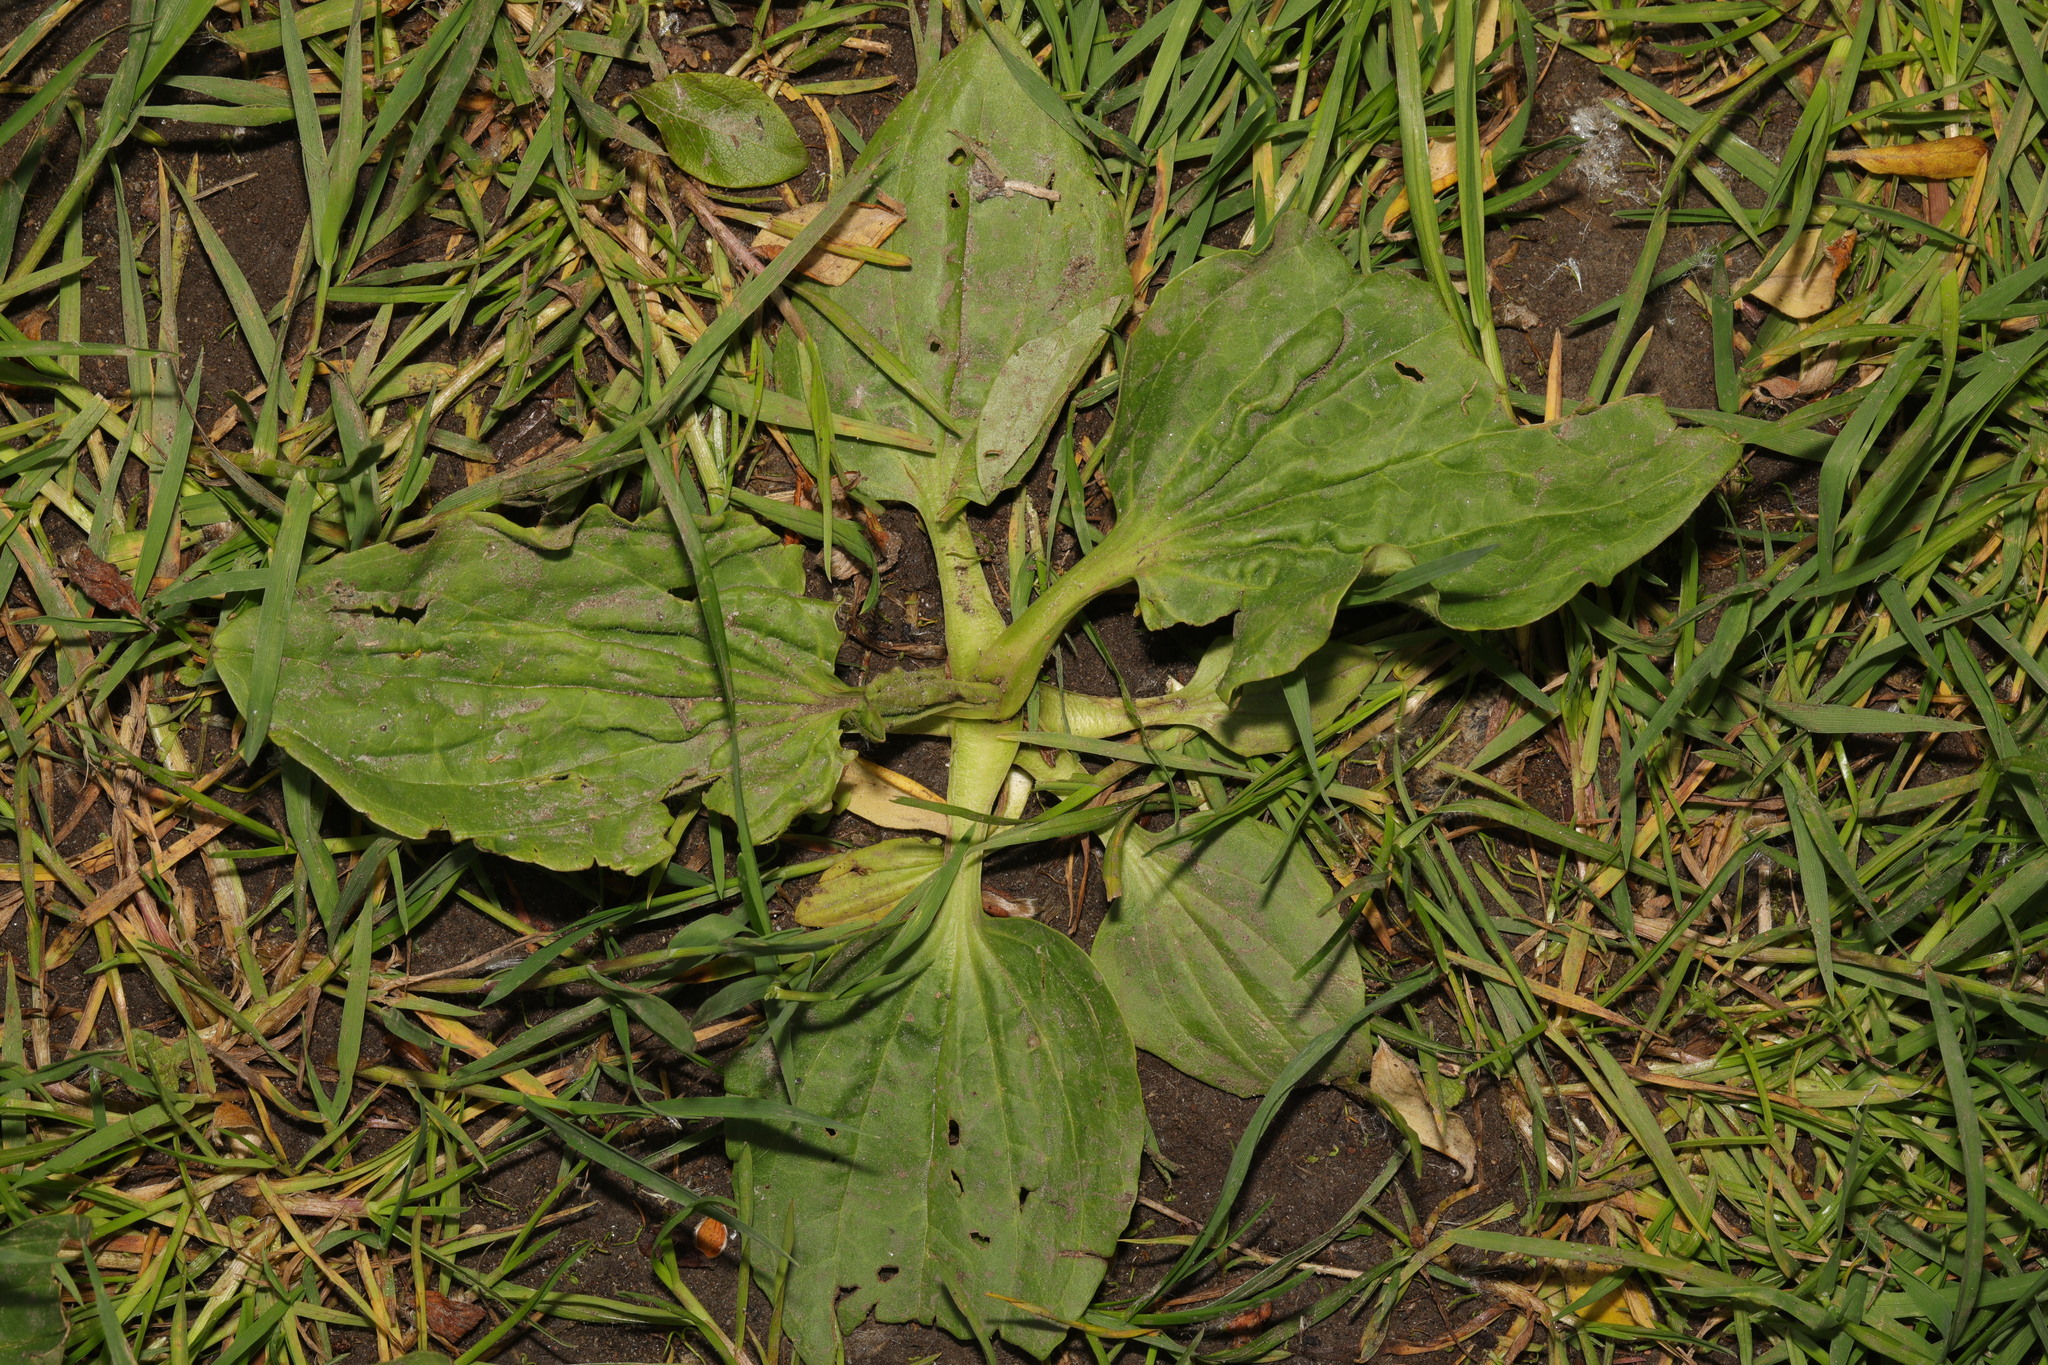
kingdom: Plantae
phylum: Tracheophyta
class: Magnoliopsida
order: Lamiales
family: Plantaginaceae
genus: Plantago
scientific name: Plantago major
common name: Common plantain
